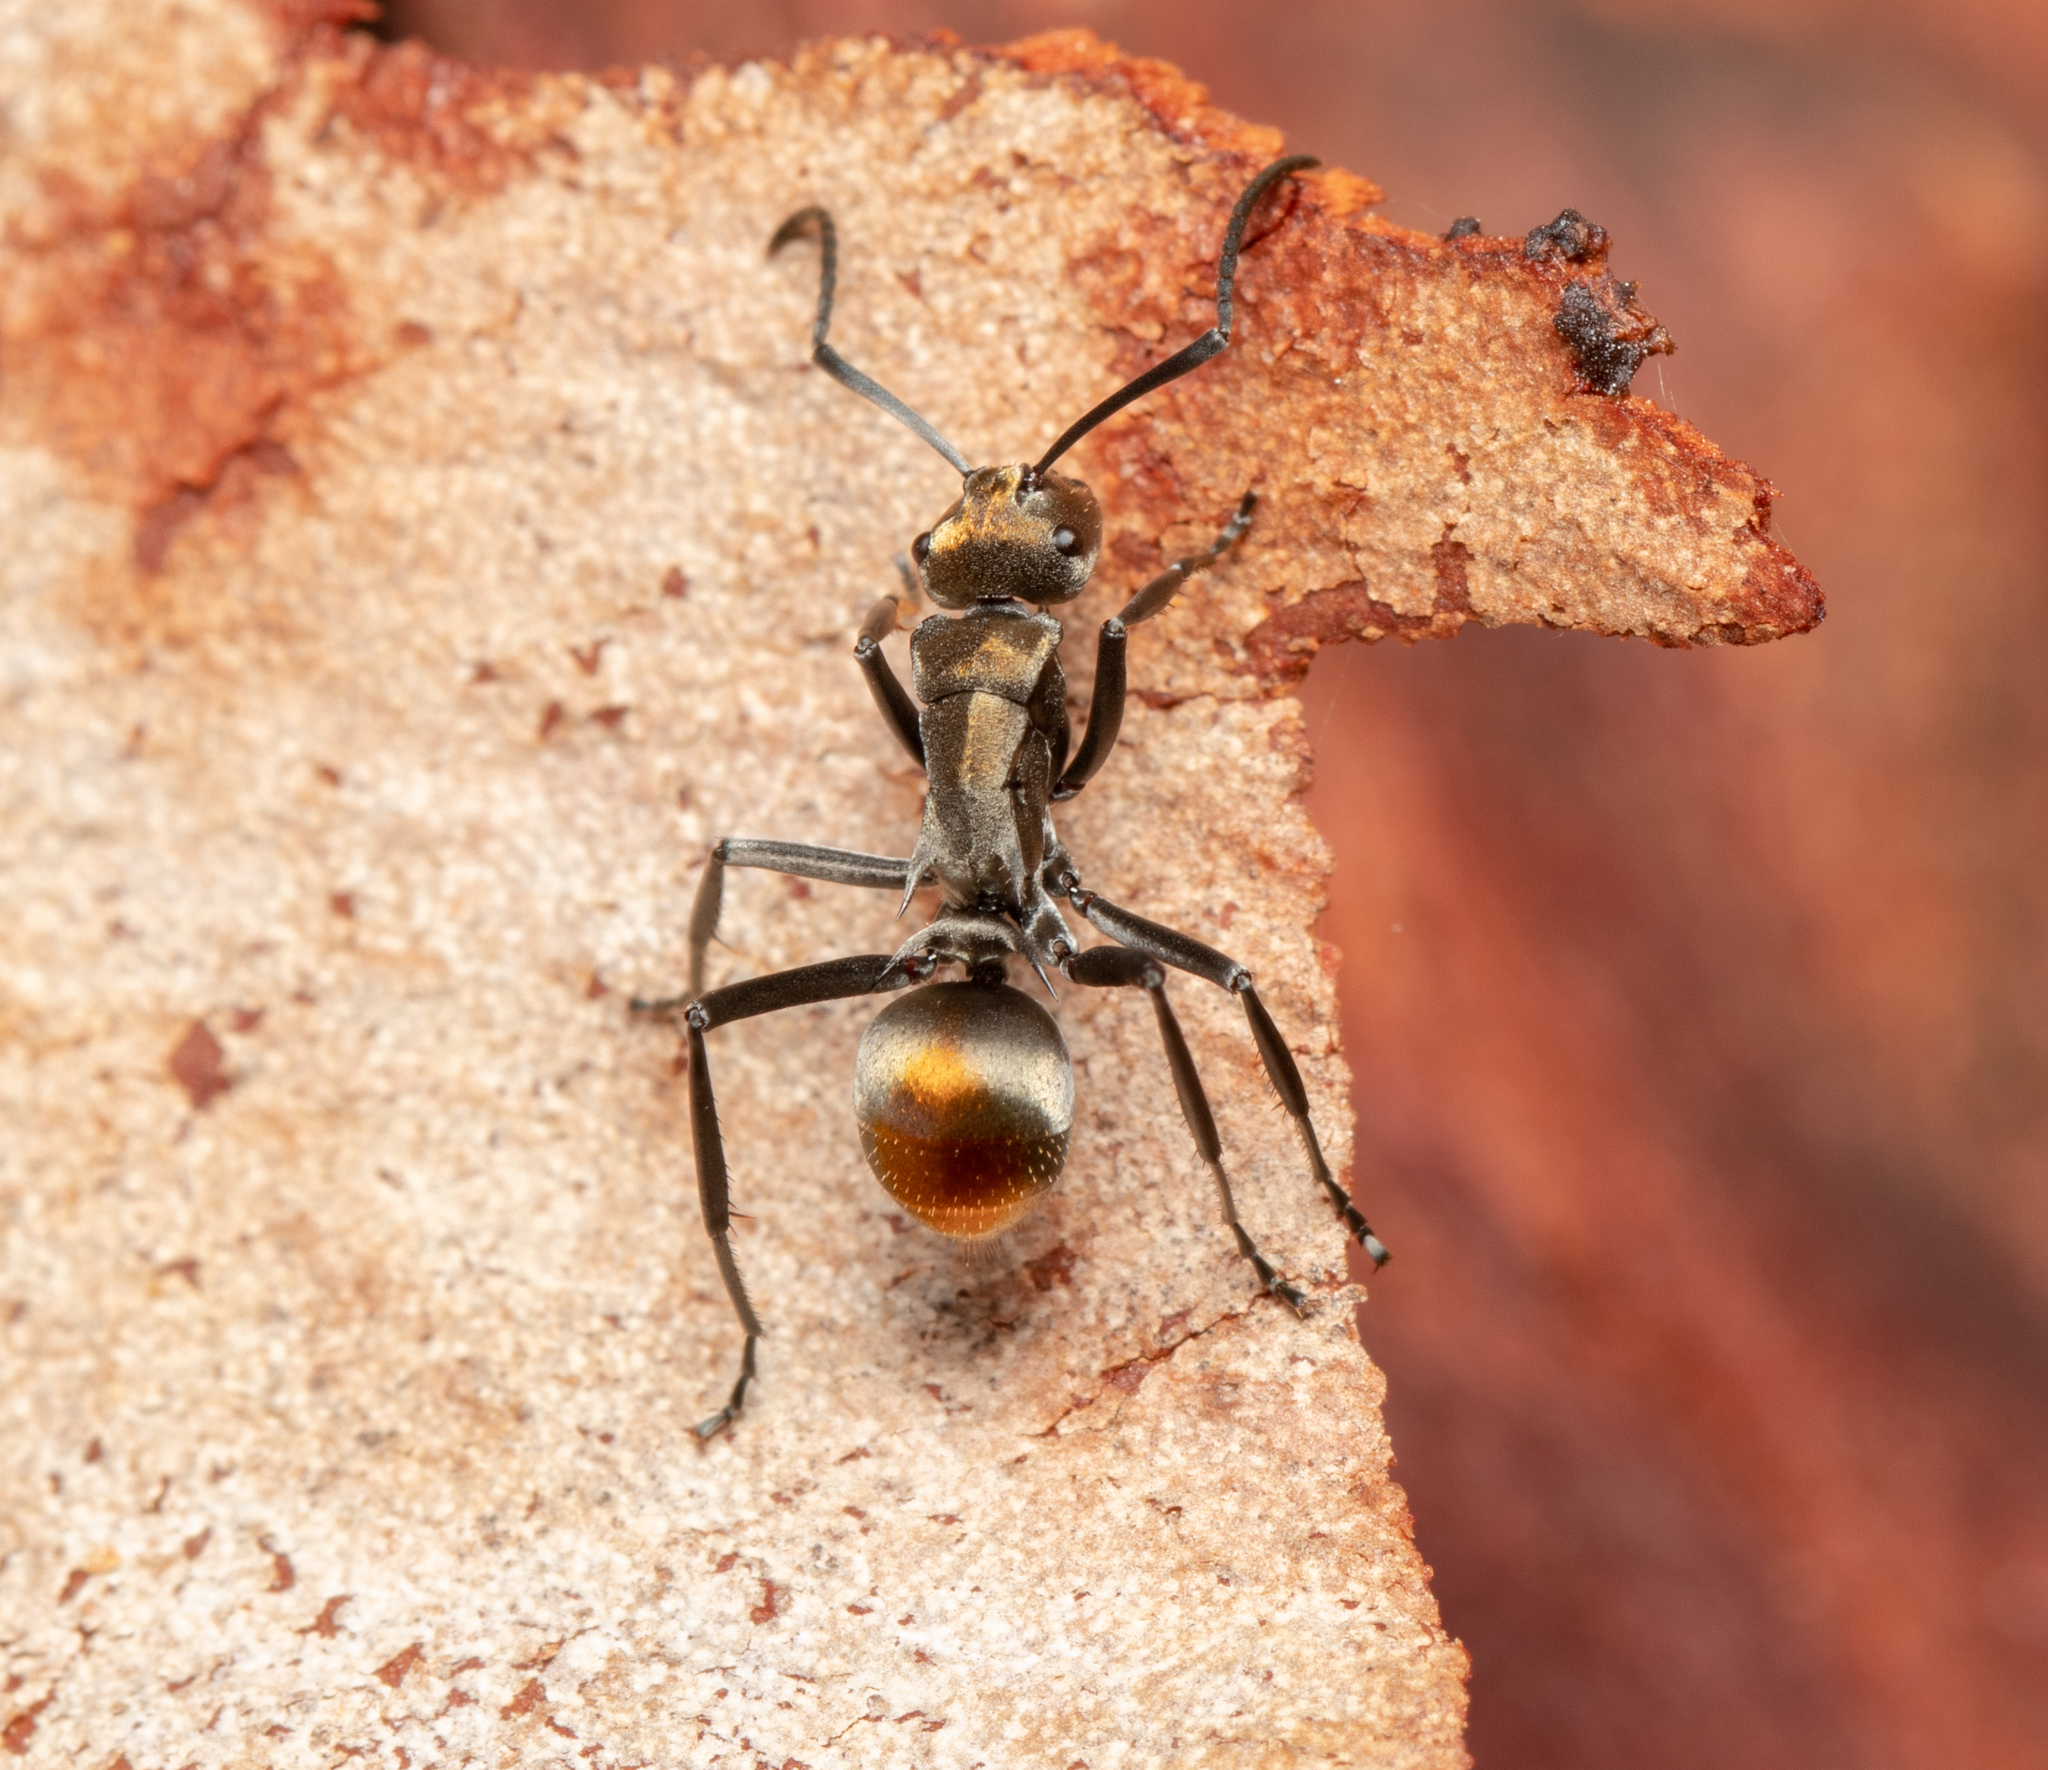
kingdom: Animalia
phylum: Arthropoda
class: Insecta
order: Hymenoptera
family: Formicidae
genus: Polyrhachis
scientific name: Polyrhachis trapezoidea
